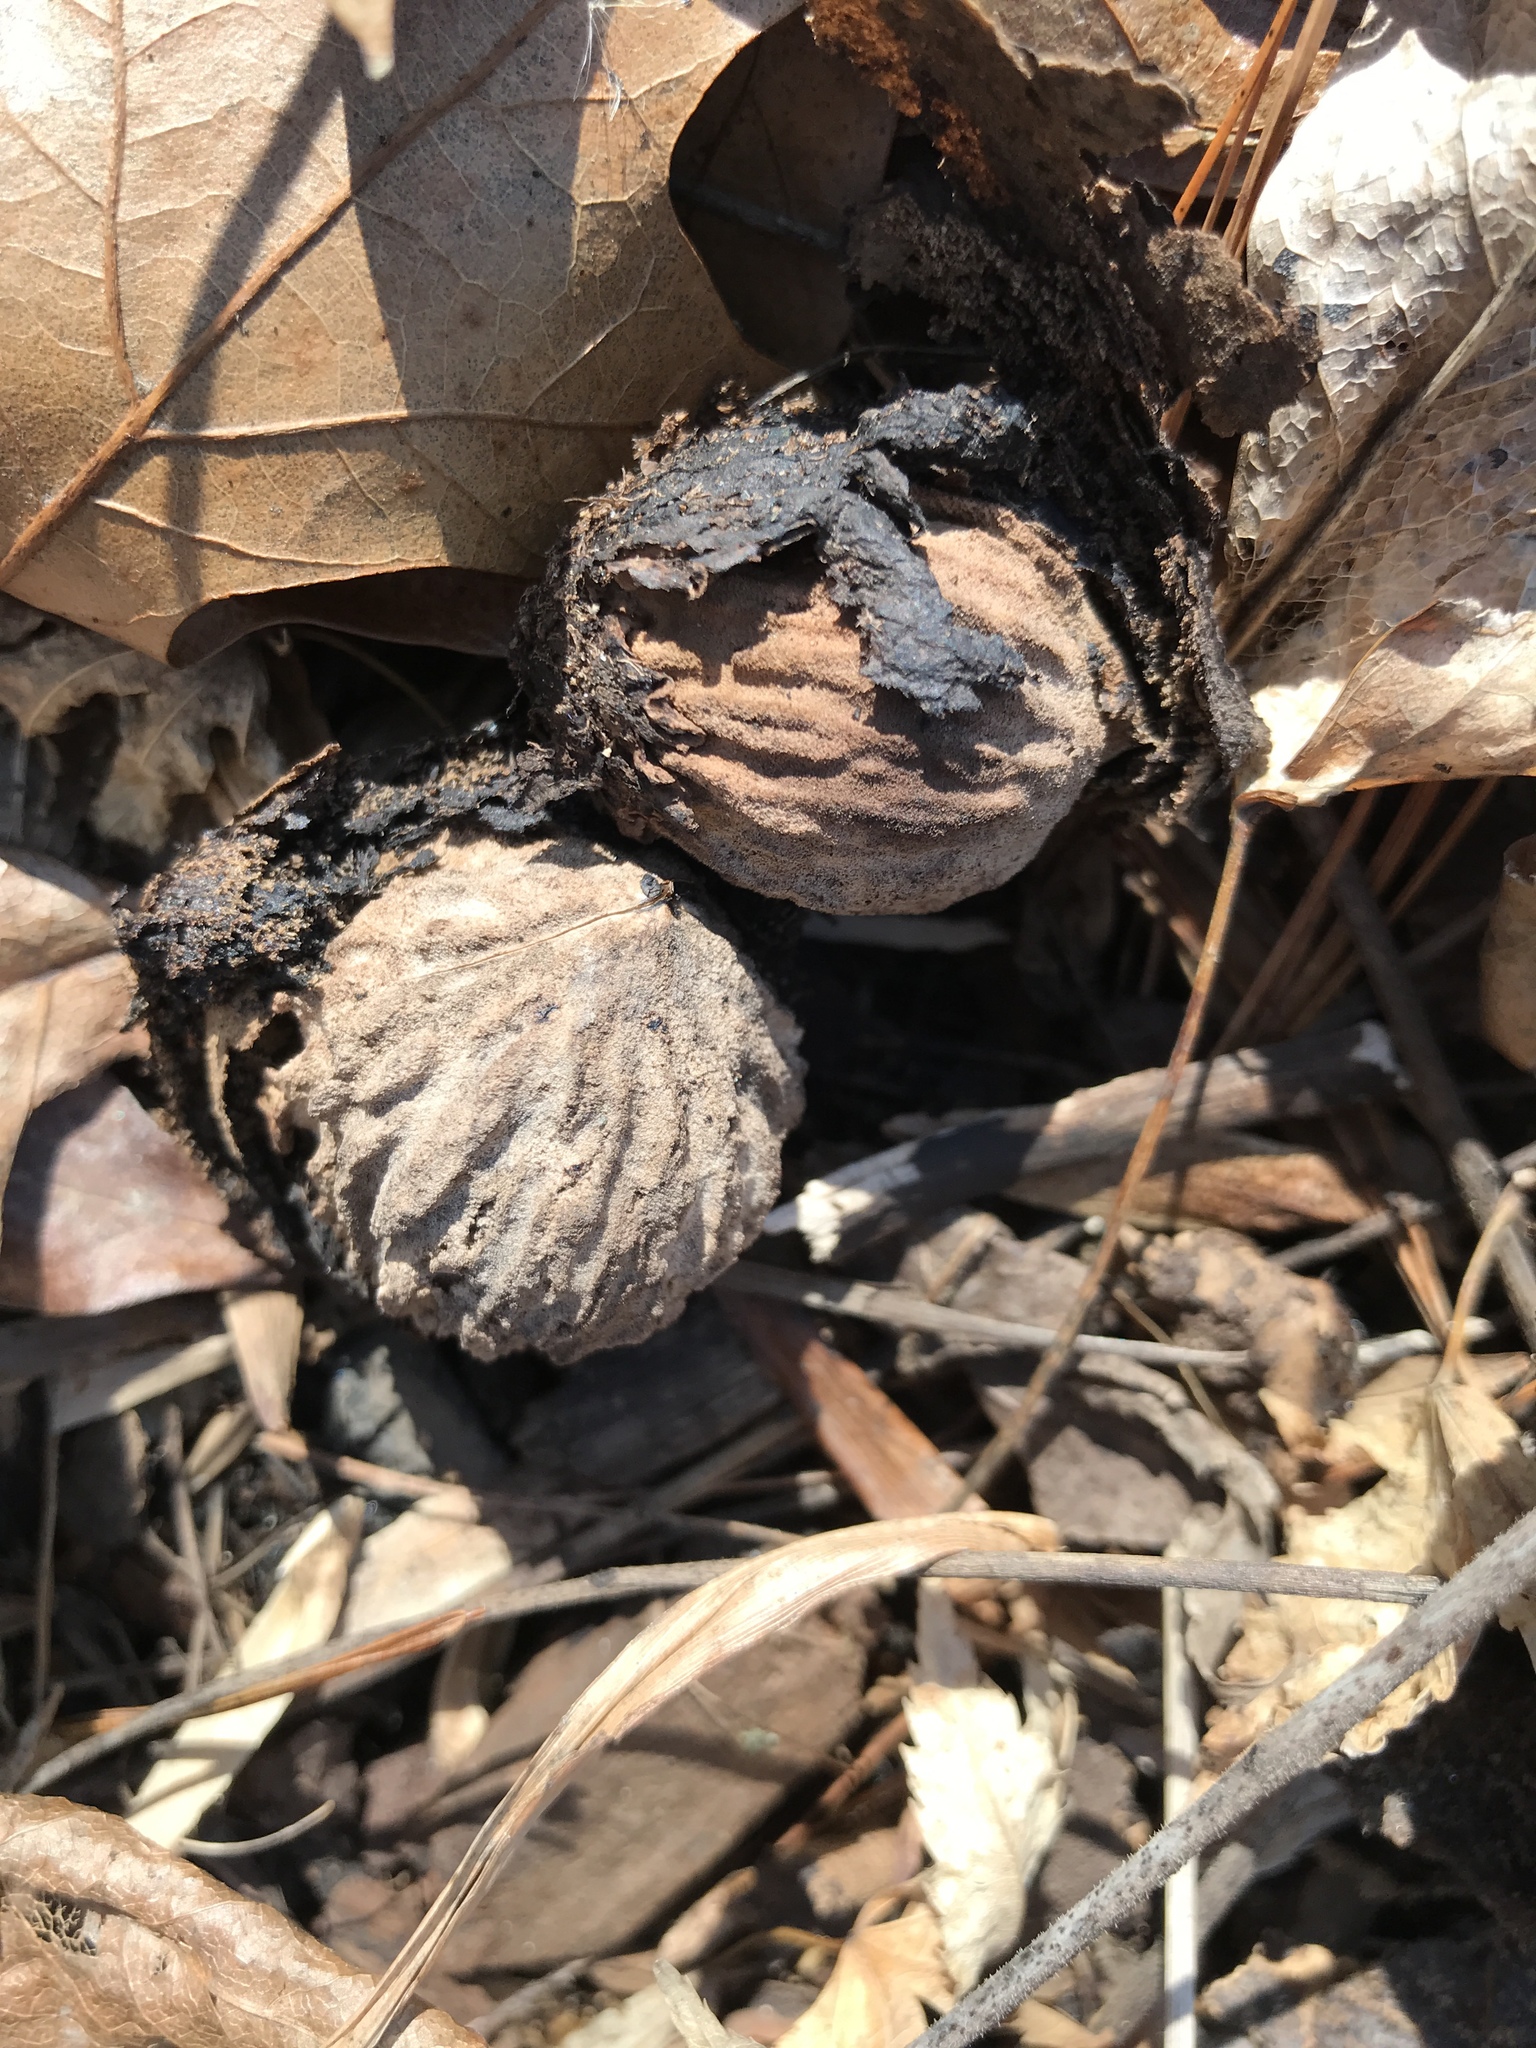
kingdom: Plantae
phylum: Tracheophyta
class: Magnoliopsida
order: Fagales
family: Juglandaceae
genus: Juglans
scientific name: Juglans nigra
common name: Black walnut
